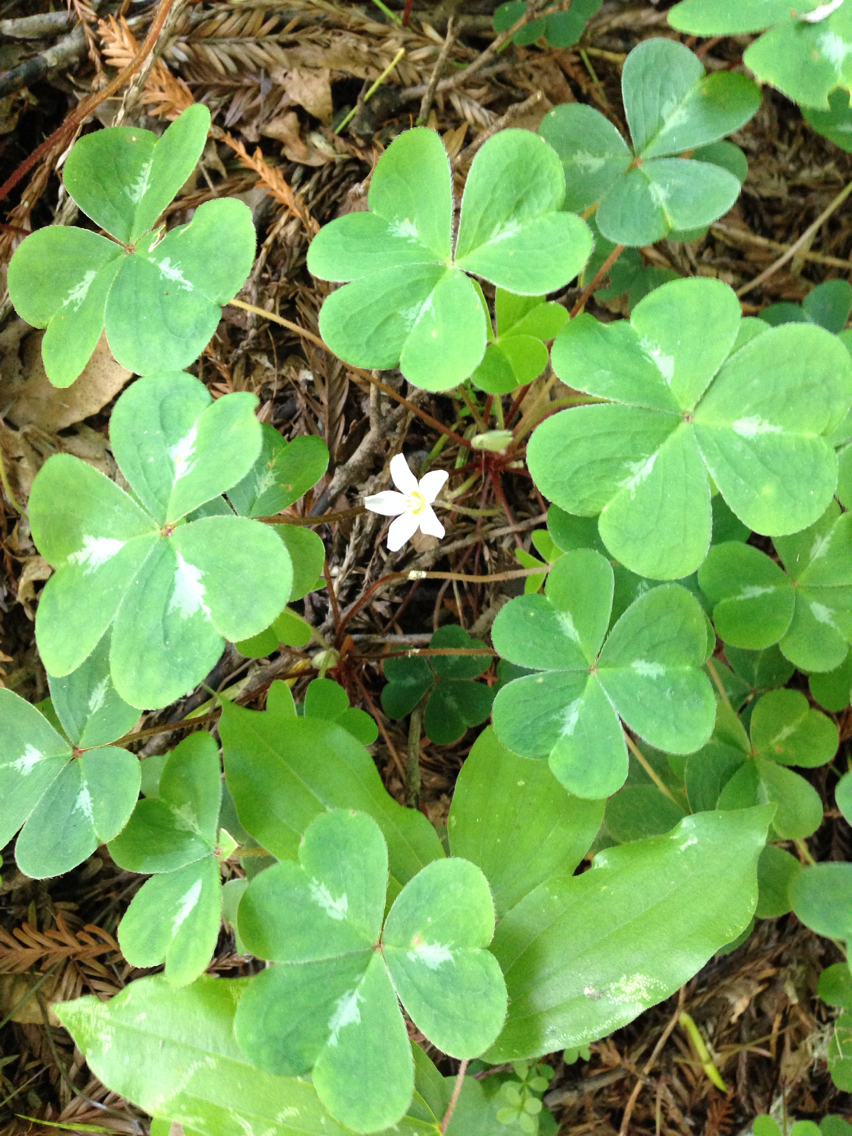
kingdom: Plantae
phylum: Tracheophyta
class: Magnoliopsida
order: Oxalidales
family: Oxalidaceae
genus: Oxalis
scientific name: Oxalis oregana
